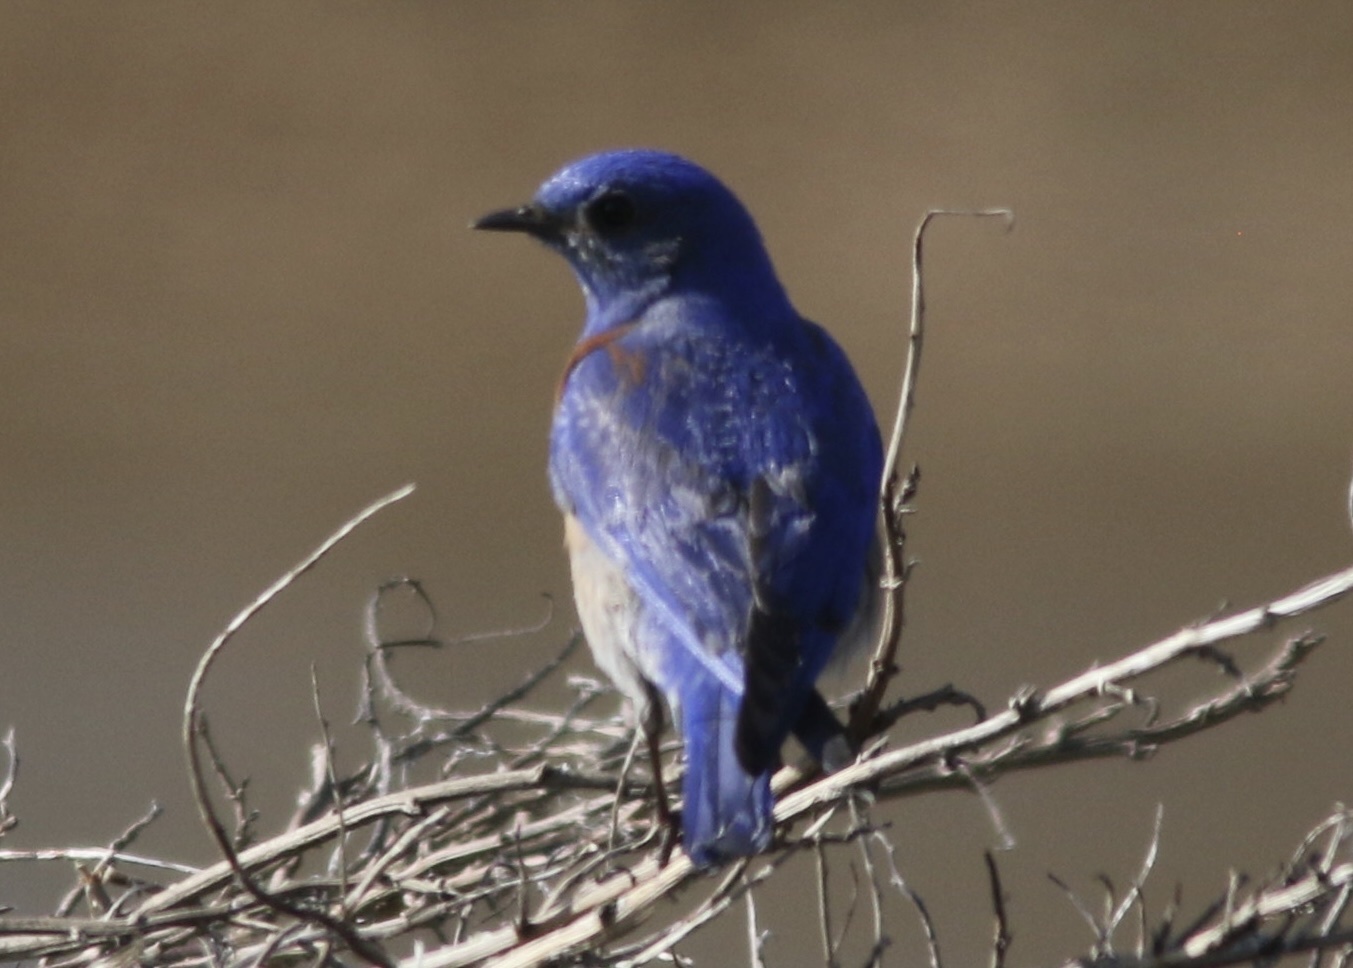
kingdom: Animalia
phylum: Chordata
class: Aves
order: Passeriformes
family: Turdidae
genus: Sialia
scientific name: Sialia mexicana
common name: Western bluebird
